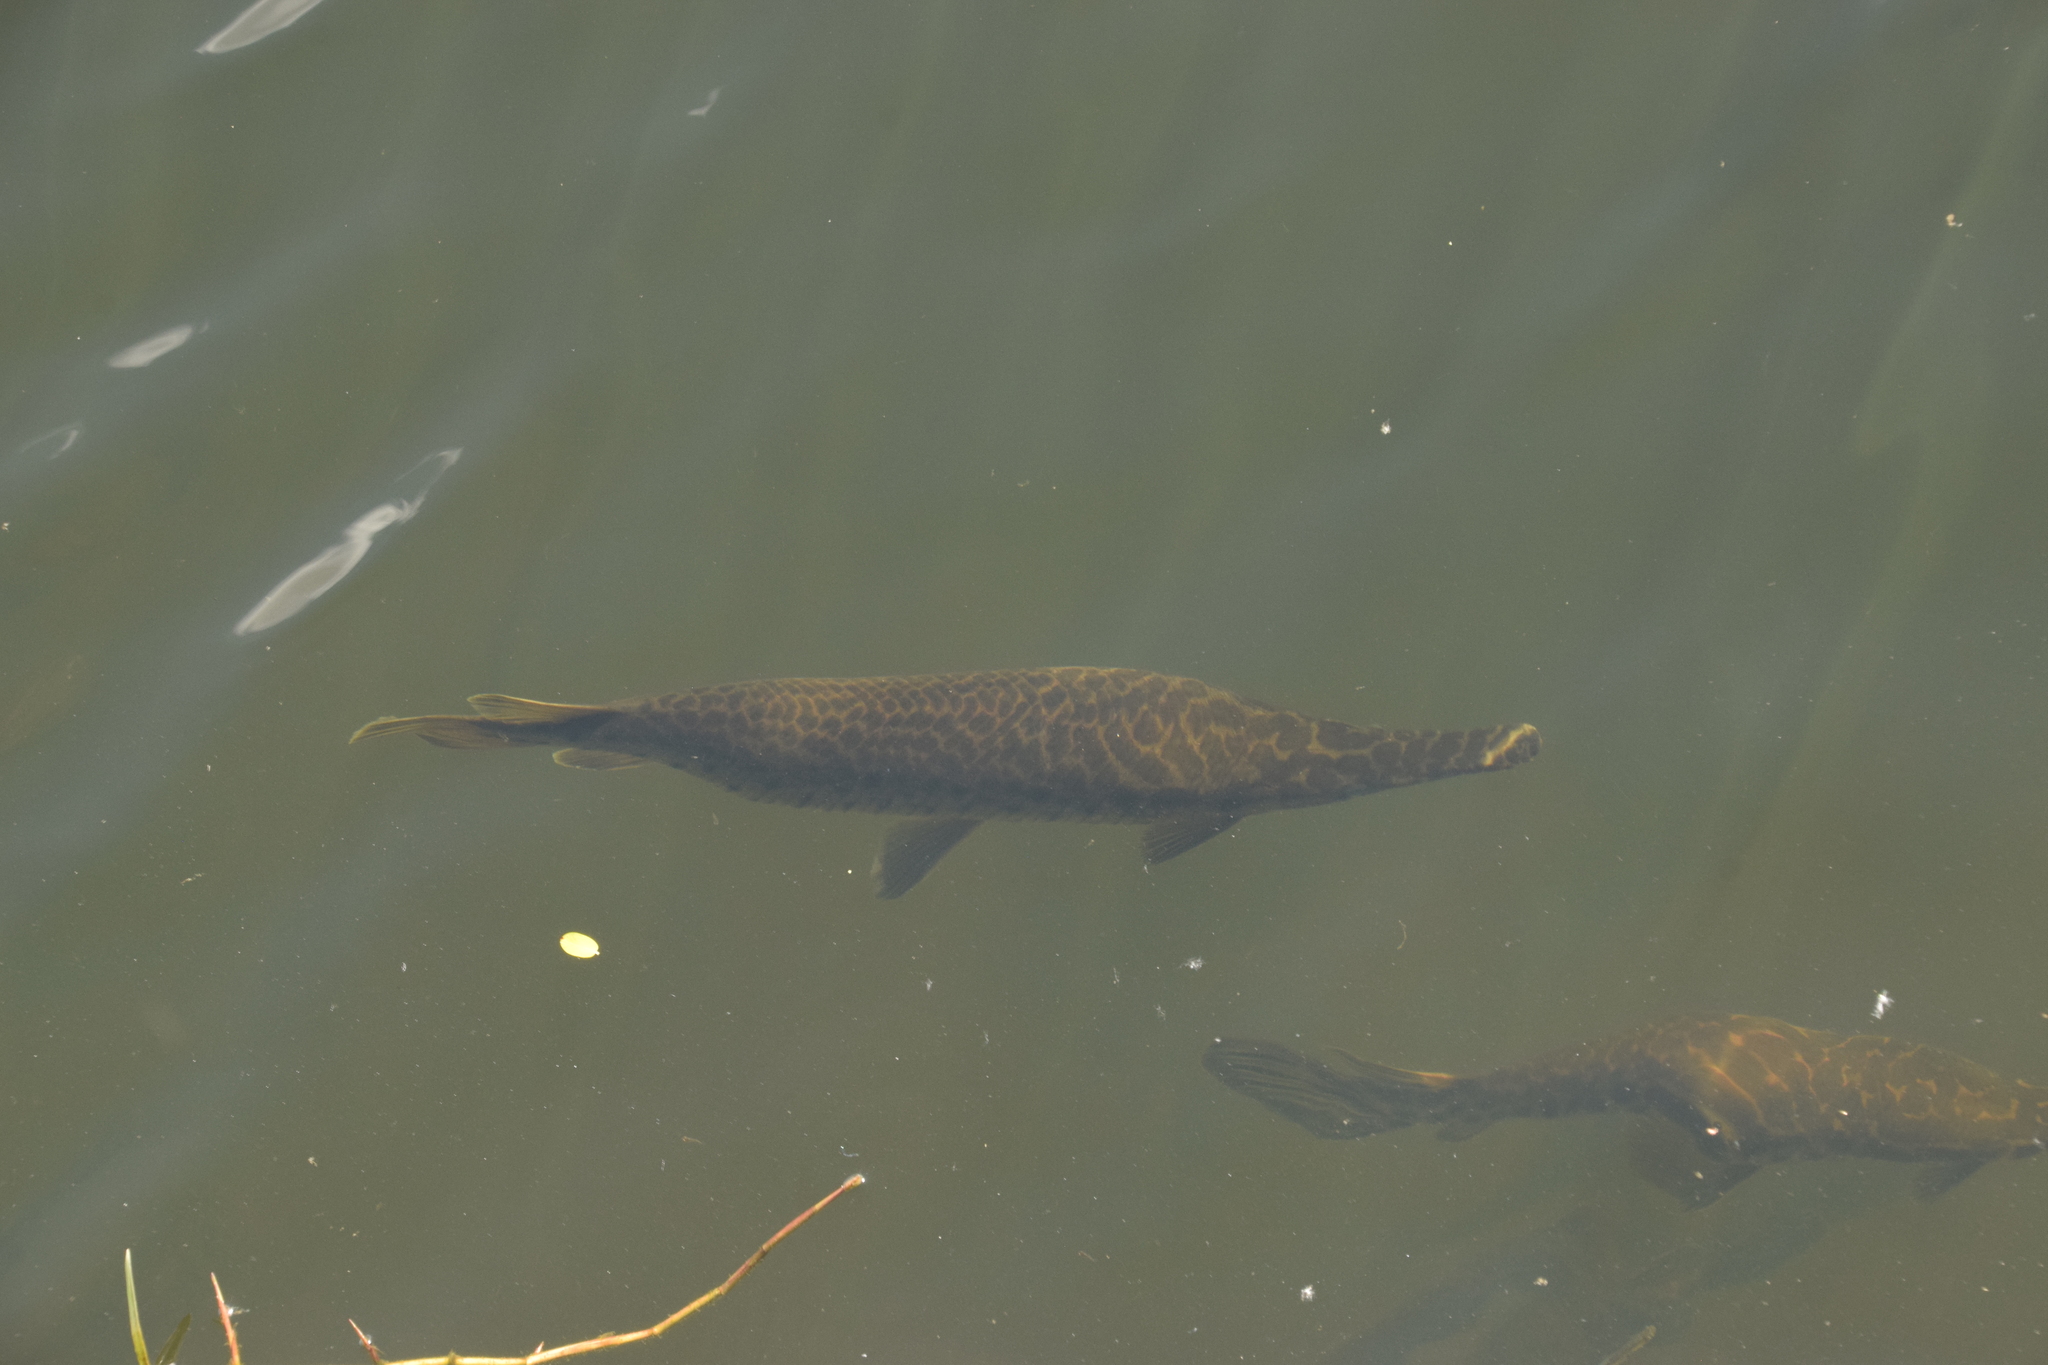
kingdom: Animalia
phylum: Chordata
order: Lepisosteiformes
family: Lepisosteidae
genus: Lepisosteus
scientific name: Lepisosteus platyrhincus
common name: Florida gar
